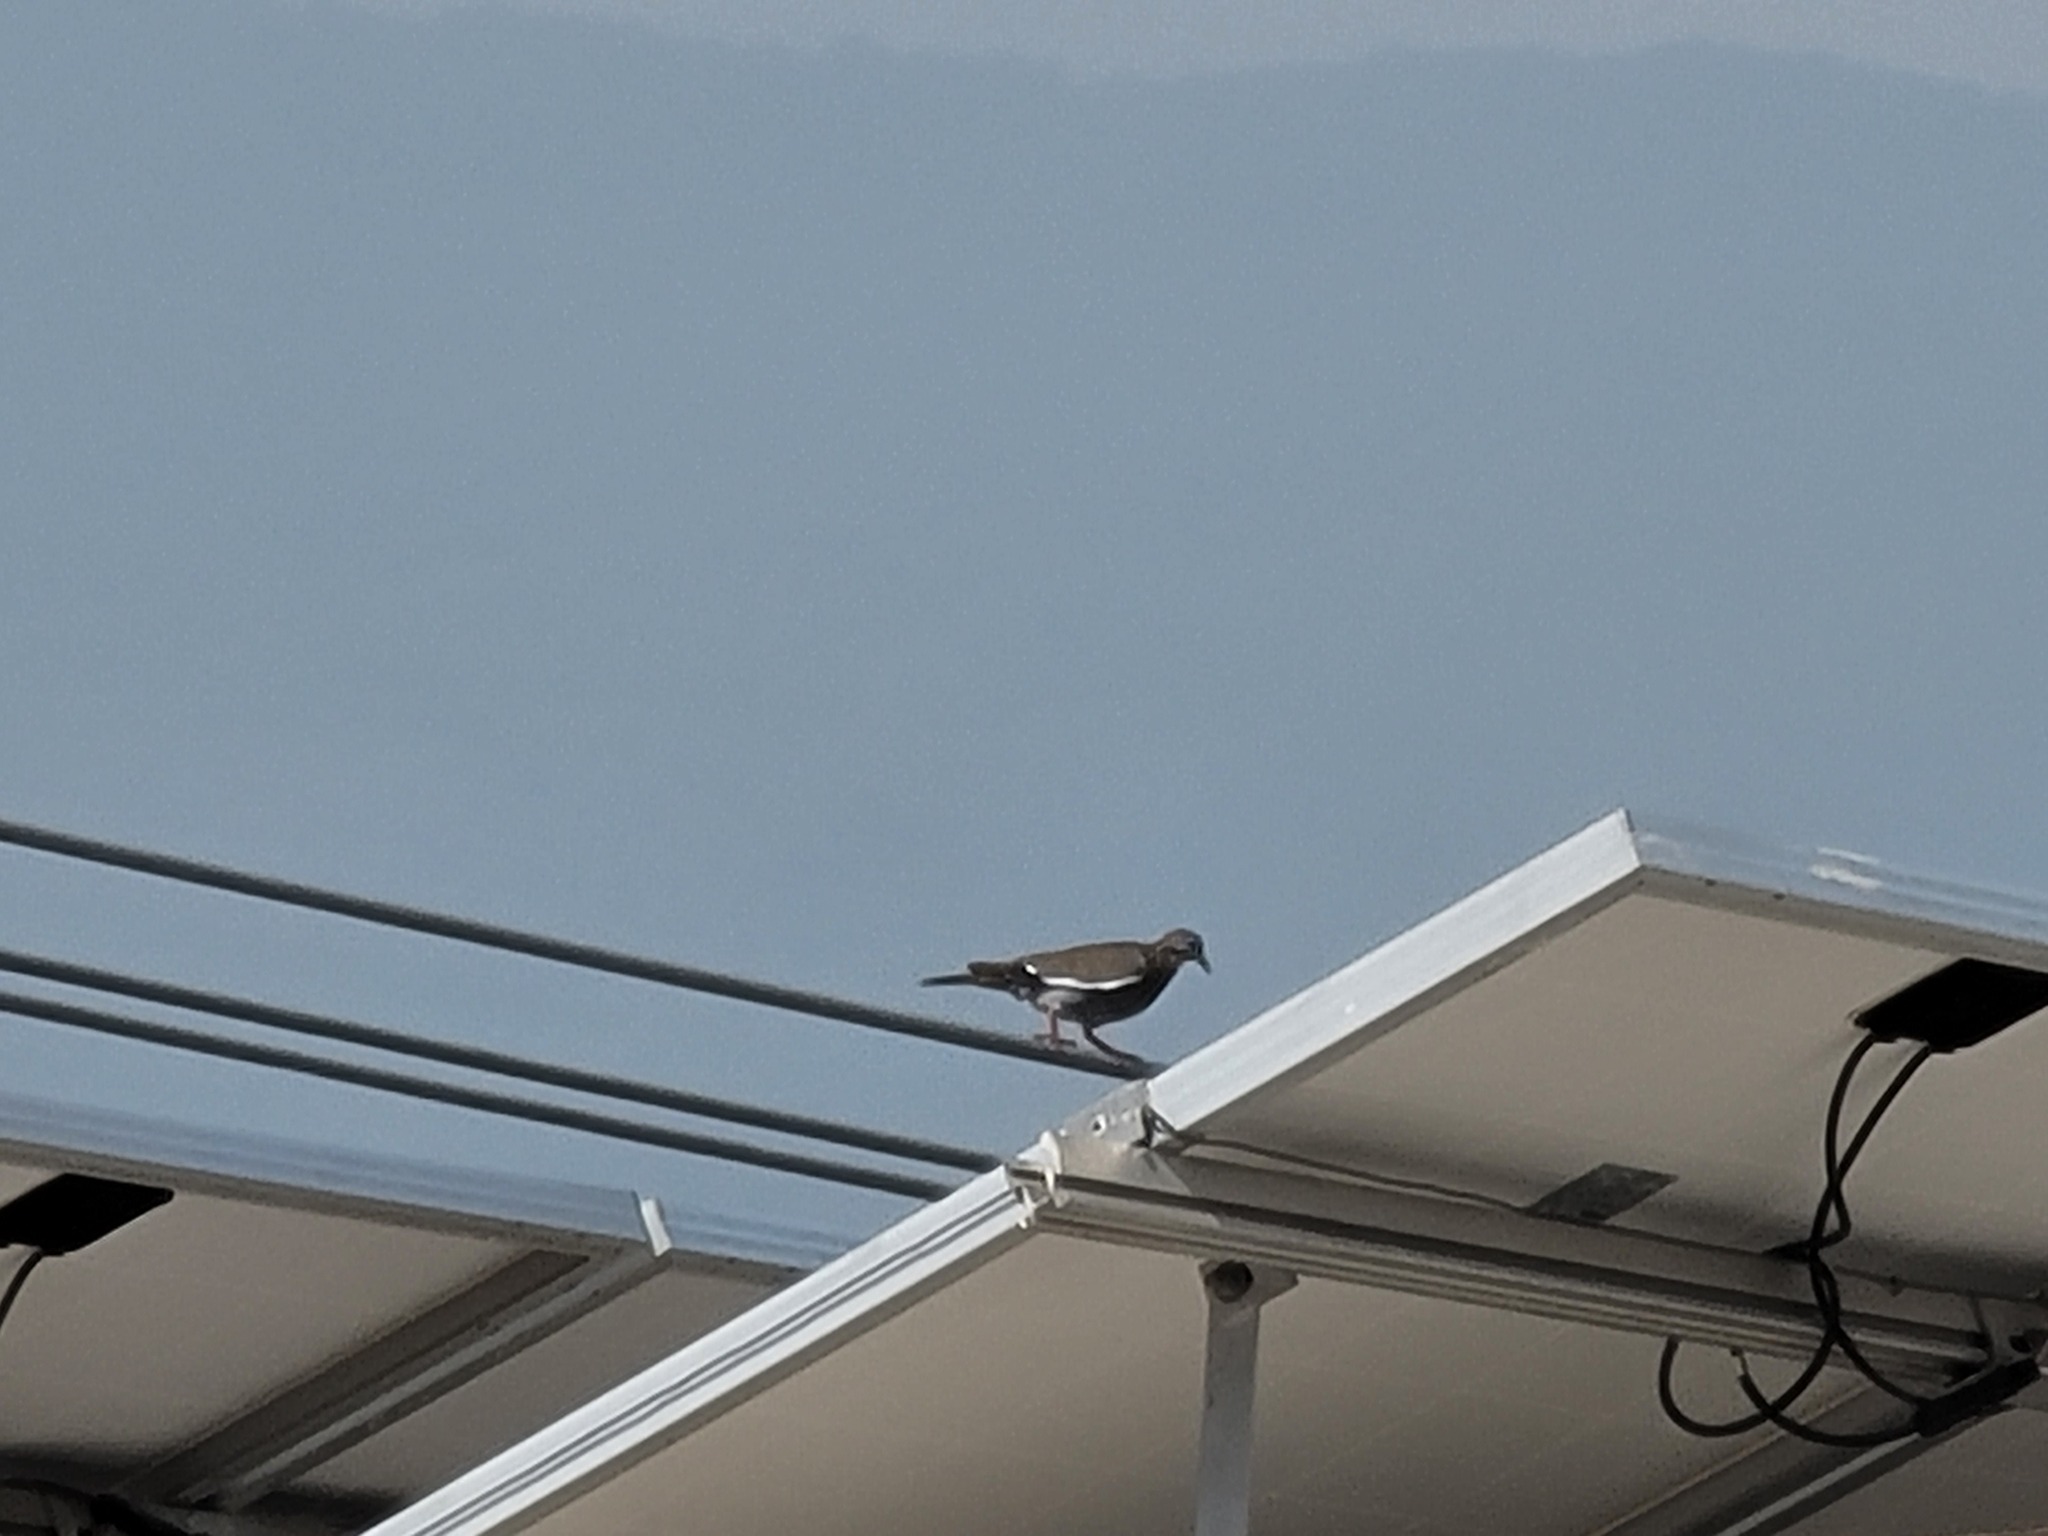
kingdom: Animalia
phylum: Chordata
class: Aves
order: Columbiformes
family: Columbidae
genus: Zenaida
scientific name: Zenaida asiatica
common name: White-winged dove
